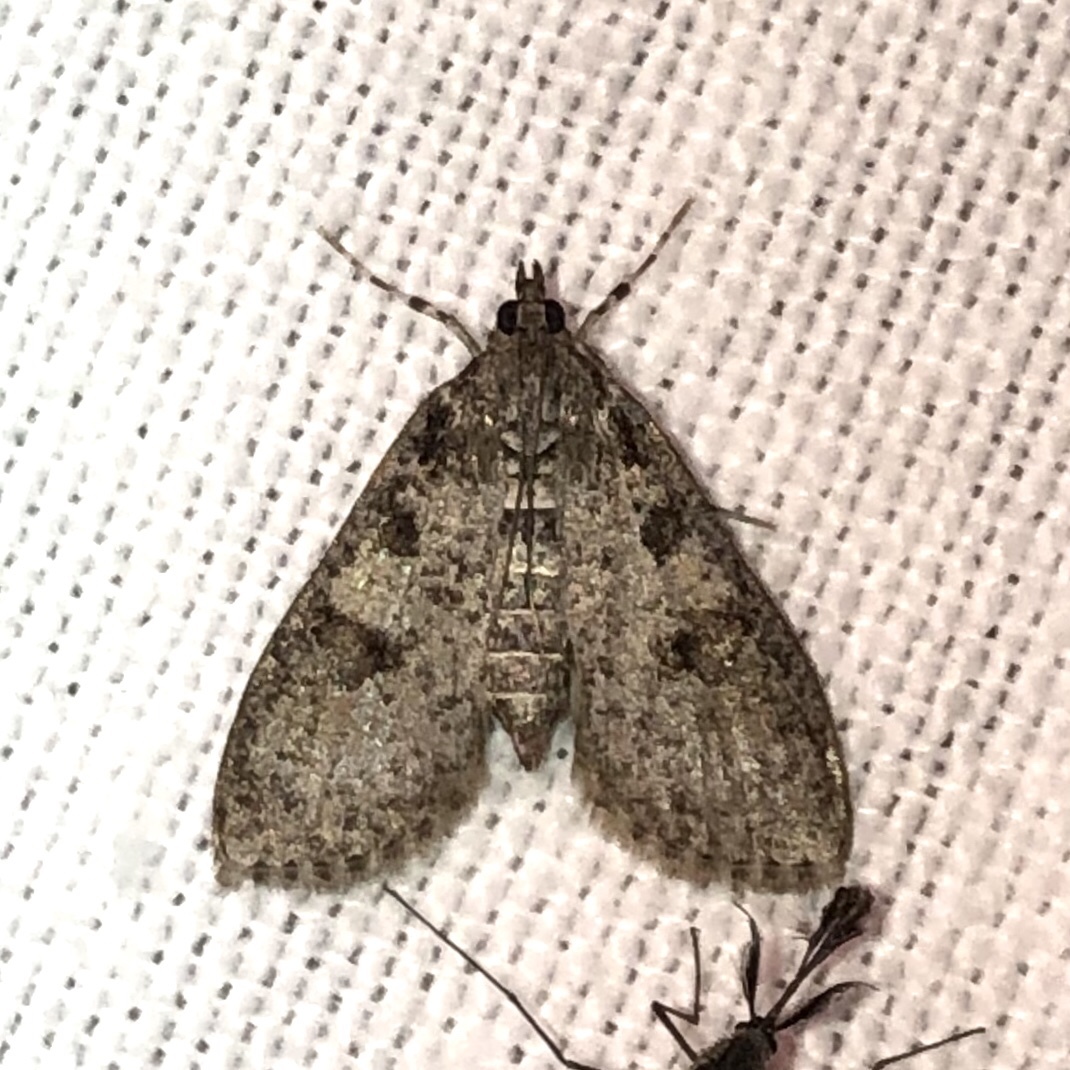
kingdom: Animalia
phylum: Arthropoda
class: Insecta
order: Lepidoptera
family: Crambidae
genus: Palpita
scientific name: Palpita magniferalis
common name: Splendid palpita moth
